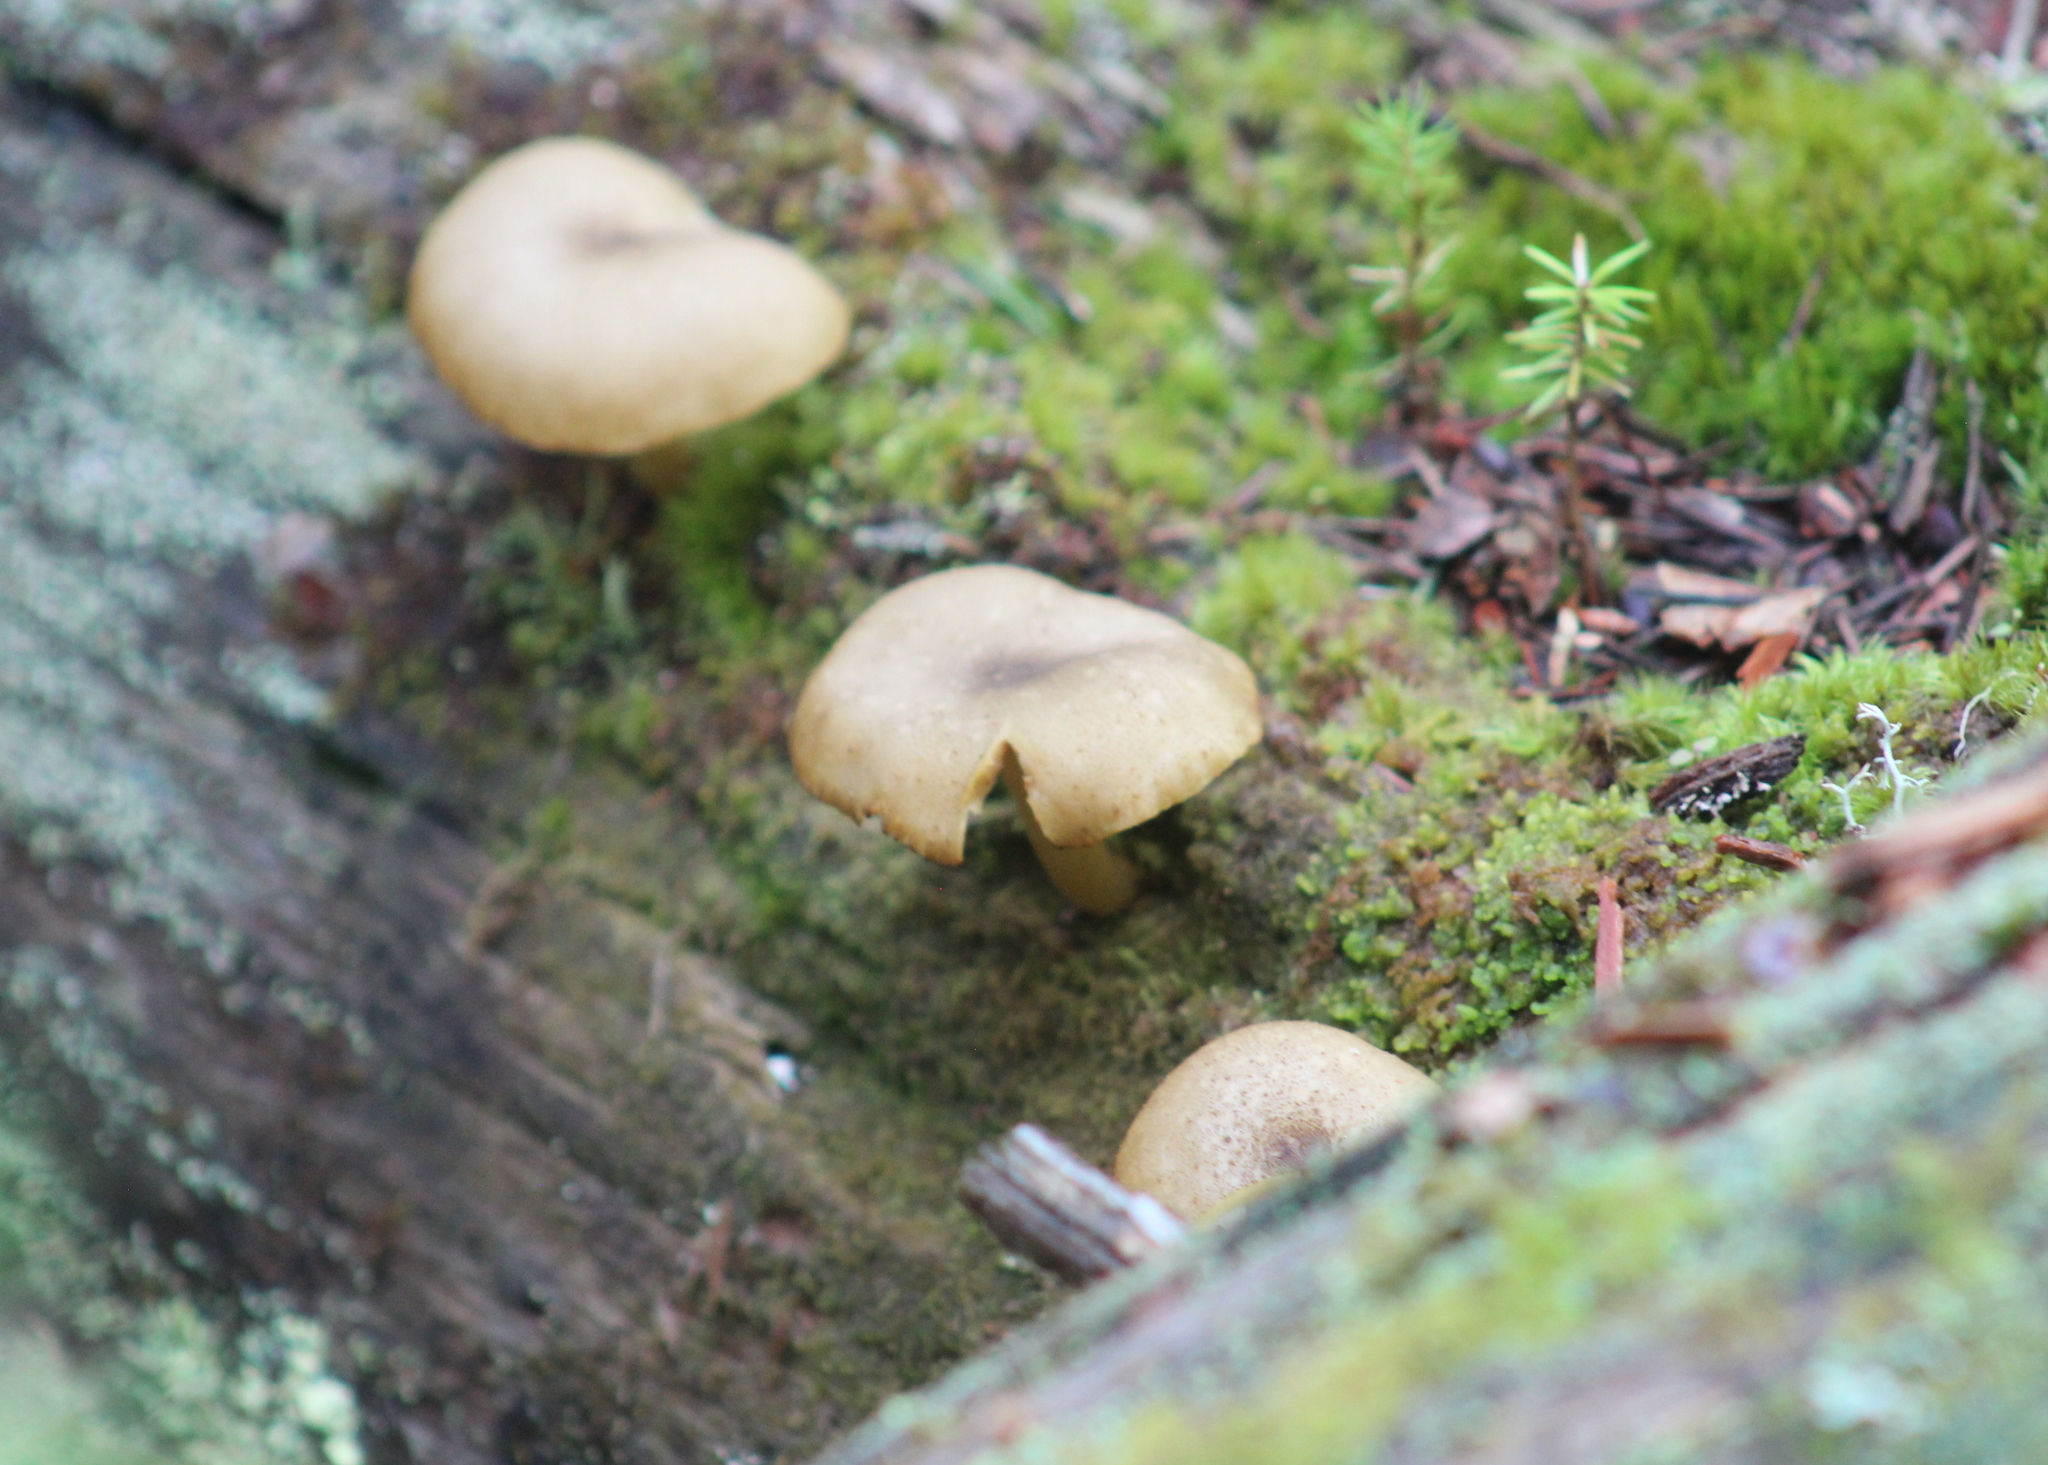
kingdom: Fungi
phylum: Basidiomycota
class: Agaricomycetes
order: Agaricales
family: Tricholomataceae
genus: Tricholomopsis
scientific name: Tricholomopsis decora
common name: Prunes and custard
